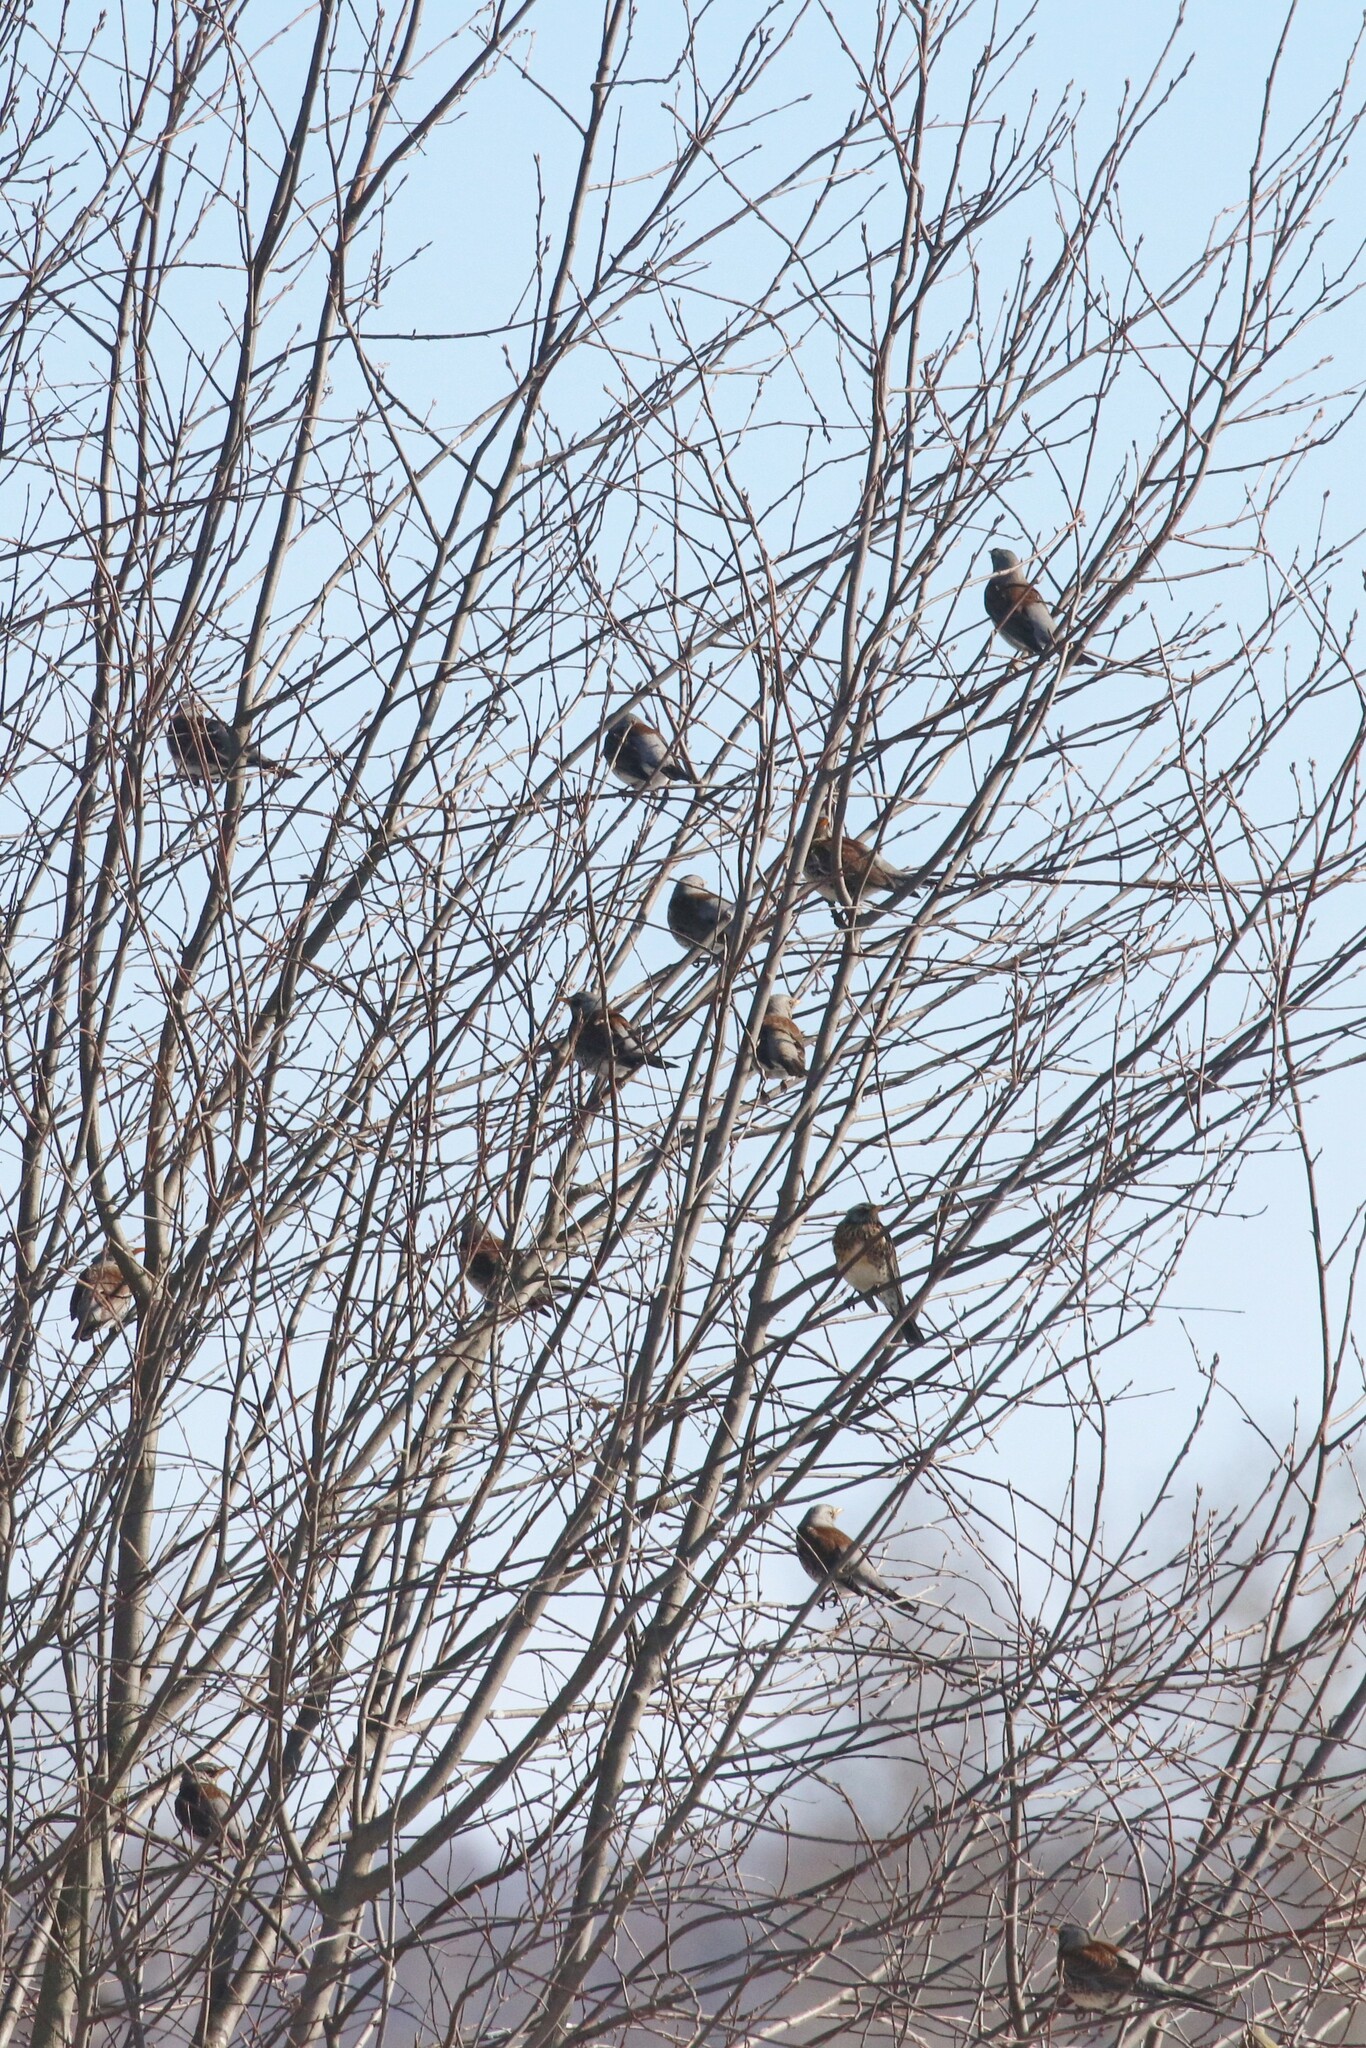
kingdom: Animalia
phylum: Chordata
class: Aves
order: Passeriformes
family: Turdidae
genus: Turdus
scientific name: Turdus pilaris
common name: Fieldfare
